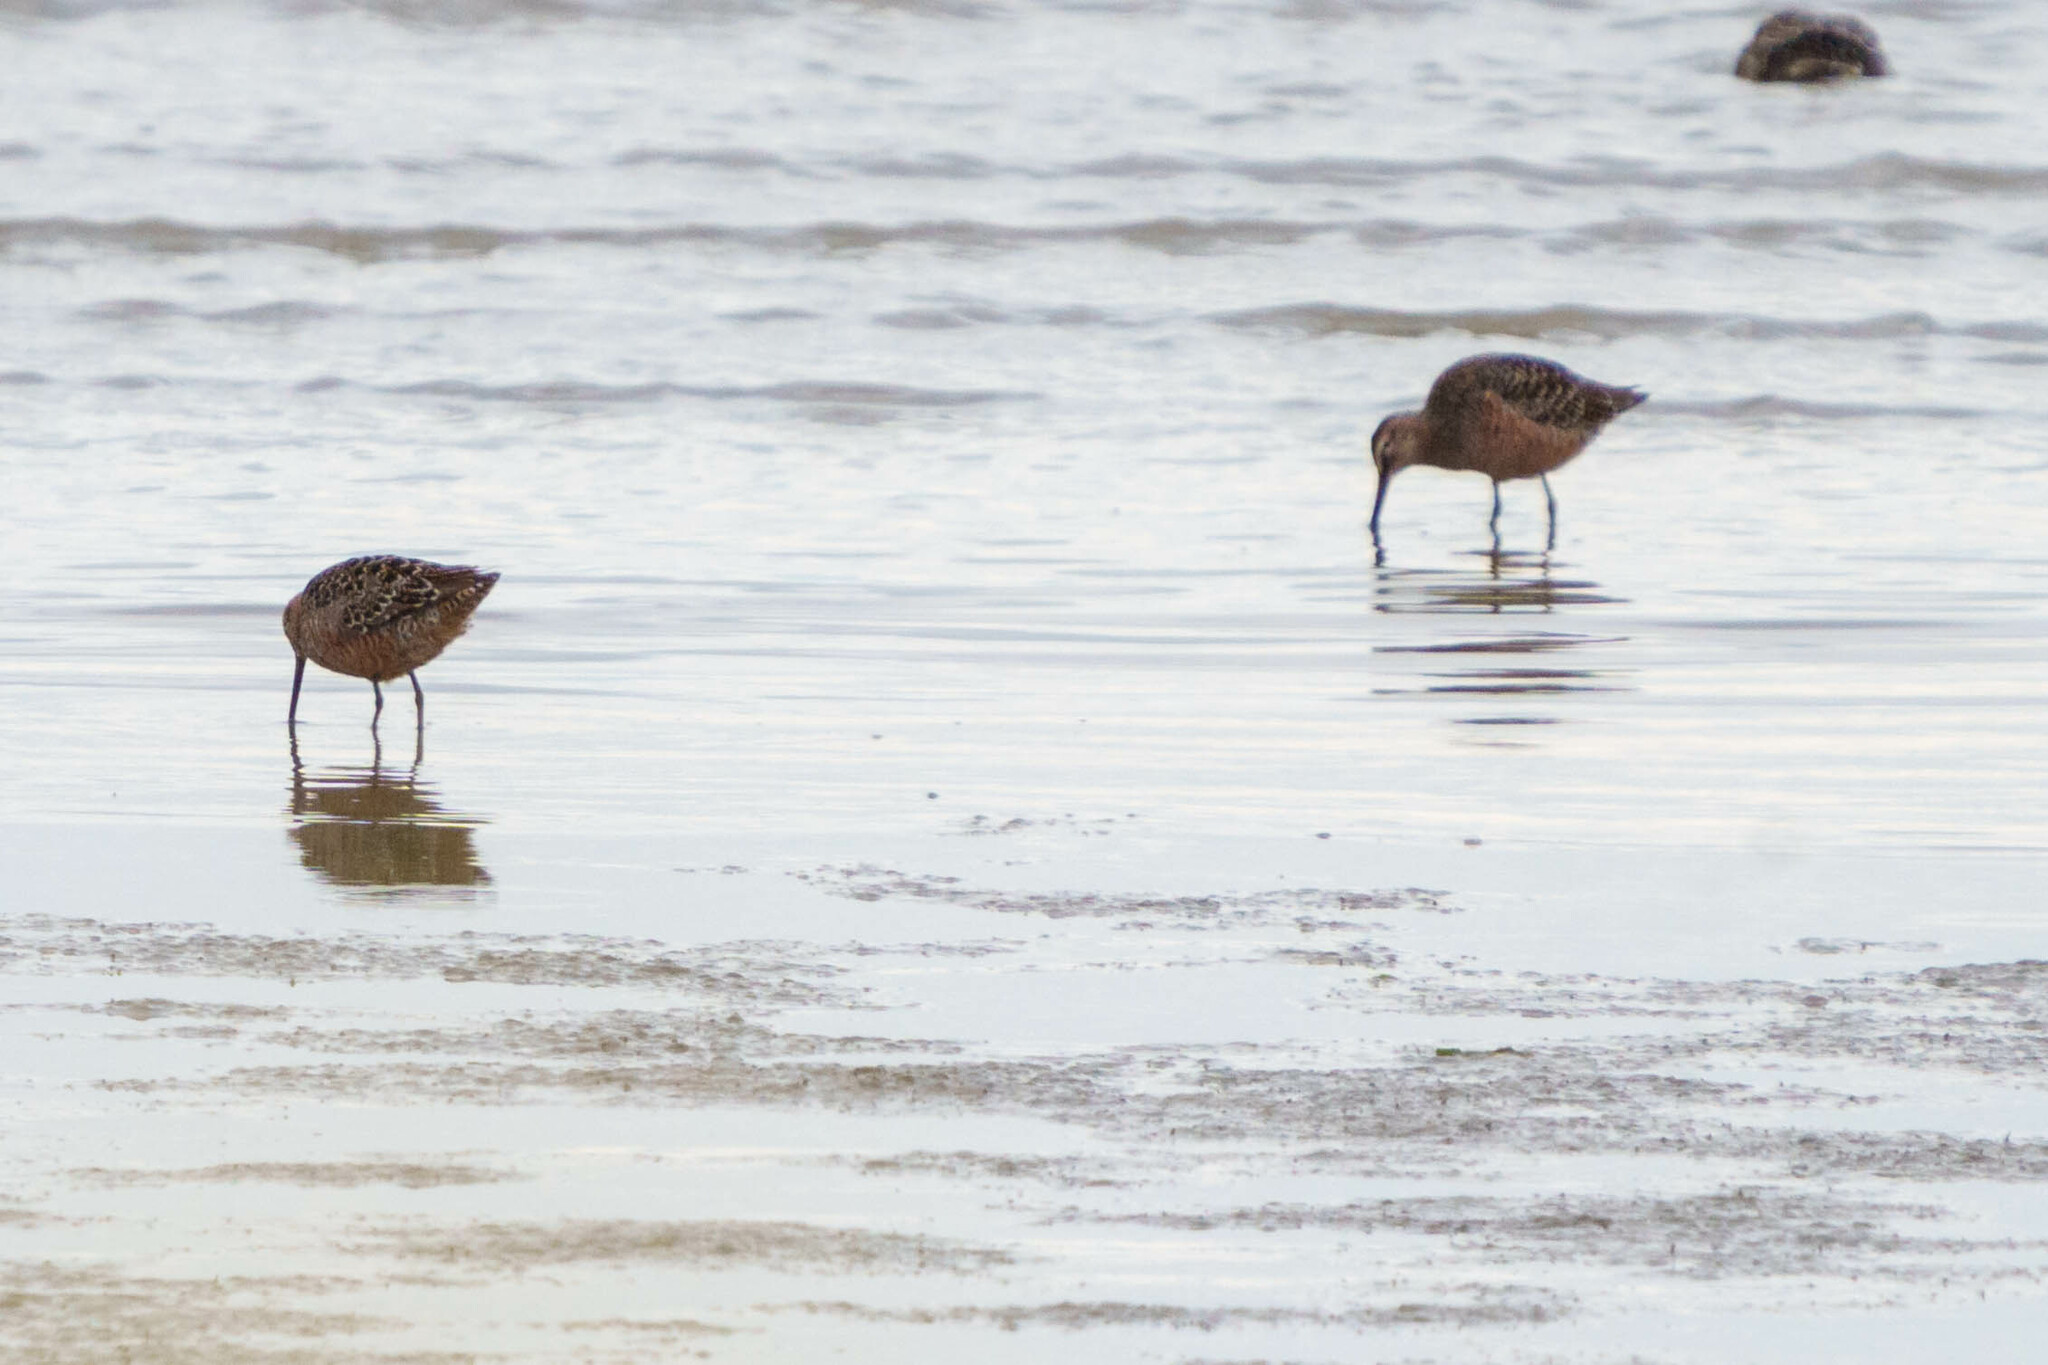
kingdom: Animalia
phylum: Chordata
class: Aves
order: Charadriiformes
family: Scolopacidae
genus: Limnodromus
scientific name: Limnodromus scolopaceus
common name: Long-billed dowitcher
